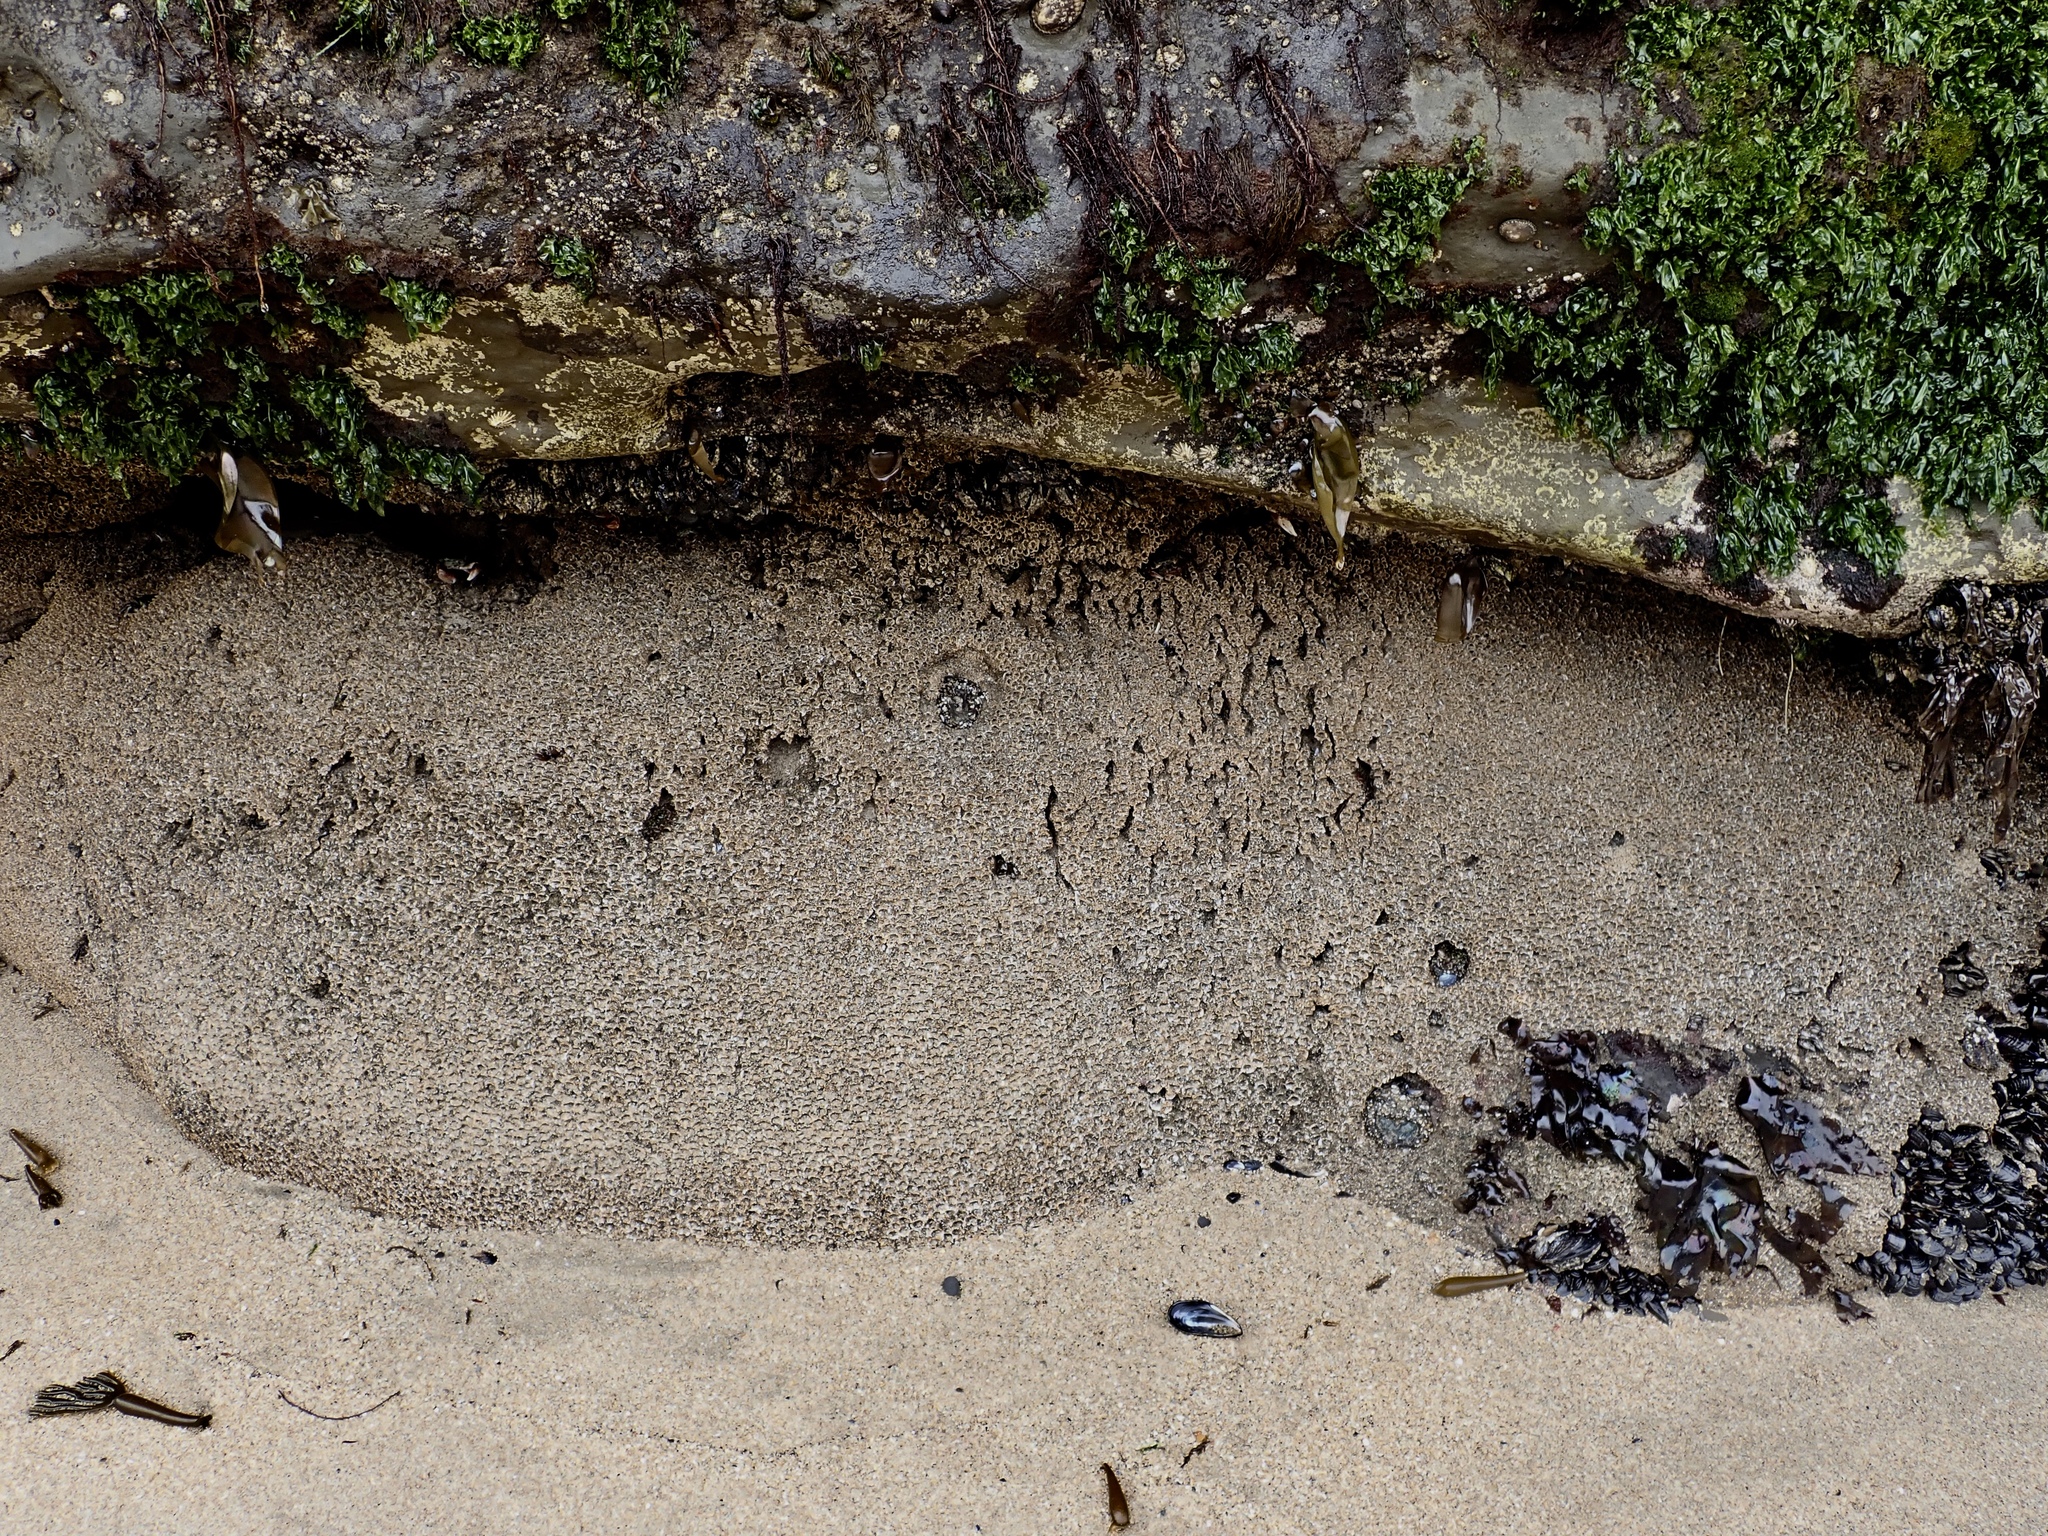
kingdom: Animalia
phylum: Annelida
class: Polychaeta
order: Sabellida
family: Sabellariidae
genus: Phragmatopoma
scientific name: Phragmatopoma californica
